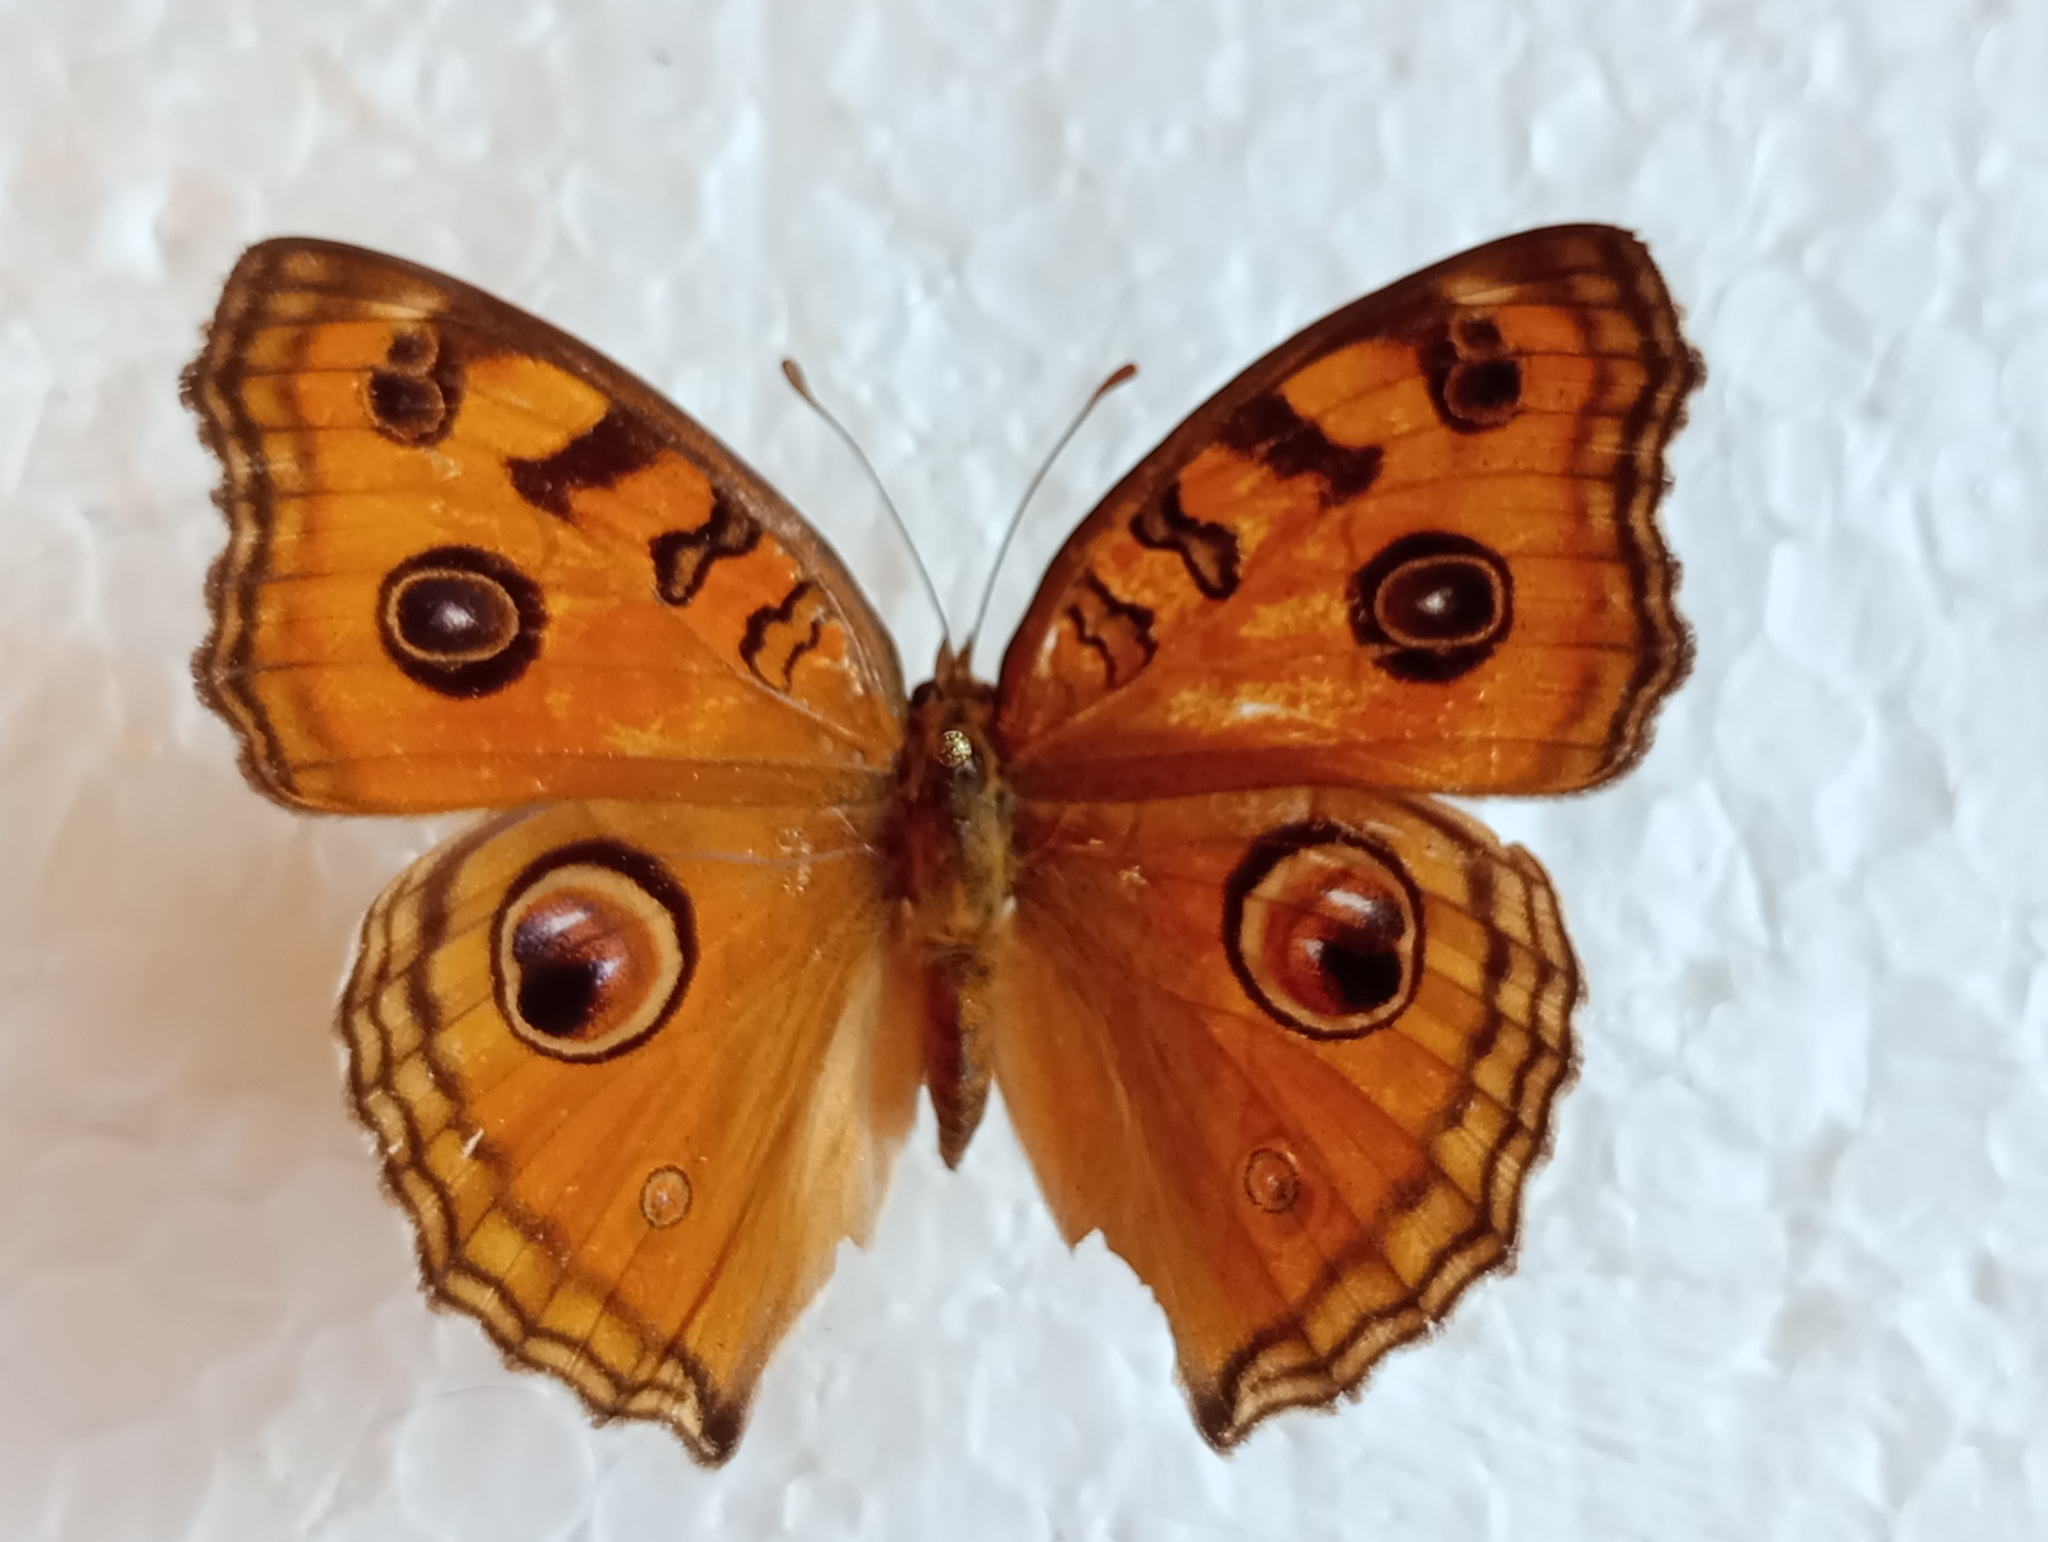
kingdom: Animalia
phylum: Arthropoda
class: Insecta
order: Lepidoptera
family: Nymphalidae
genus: Junonia
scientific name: Junonia almana
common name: Peacock pansy
